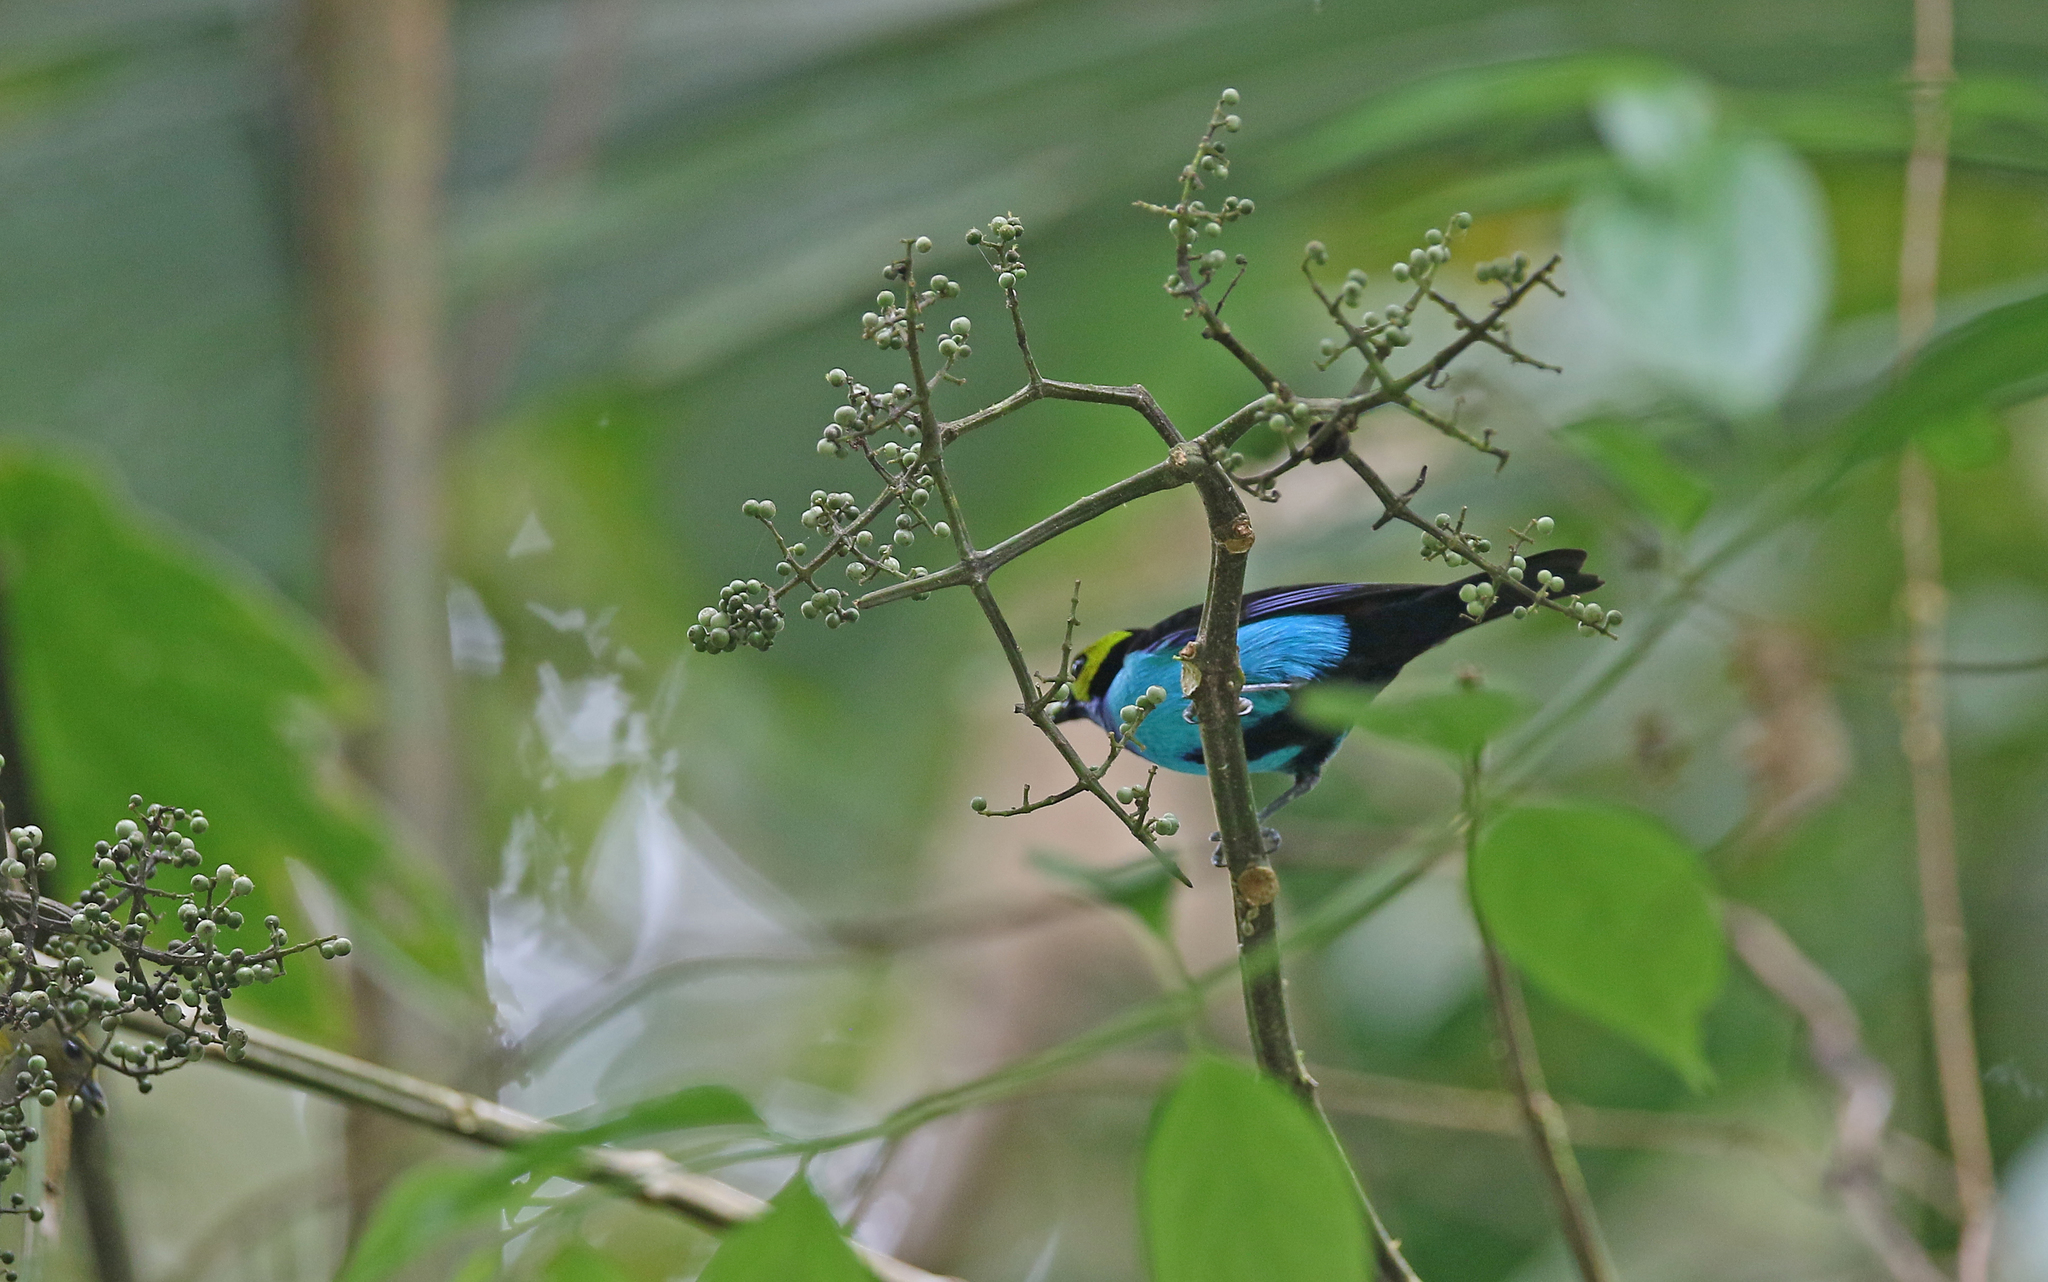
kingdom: Animalia
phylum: Chordata
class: Aves
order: Passeriformes
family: Thraupidae
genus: Tangara
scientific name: Tangara chilensis
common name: Paradise tanager
